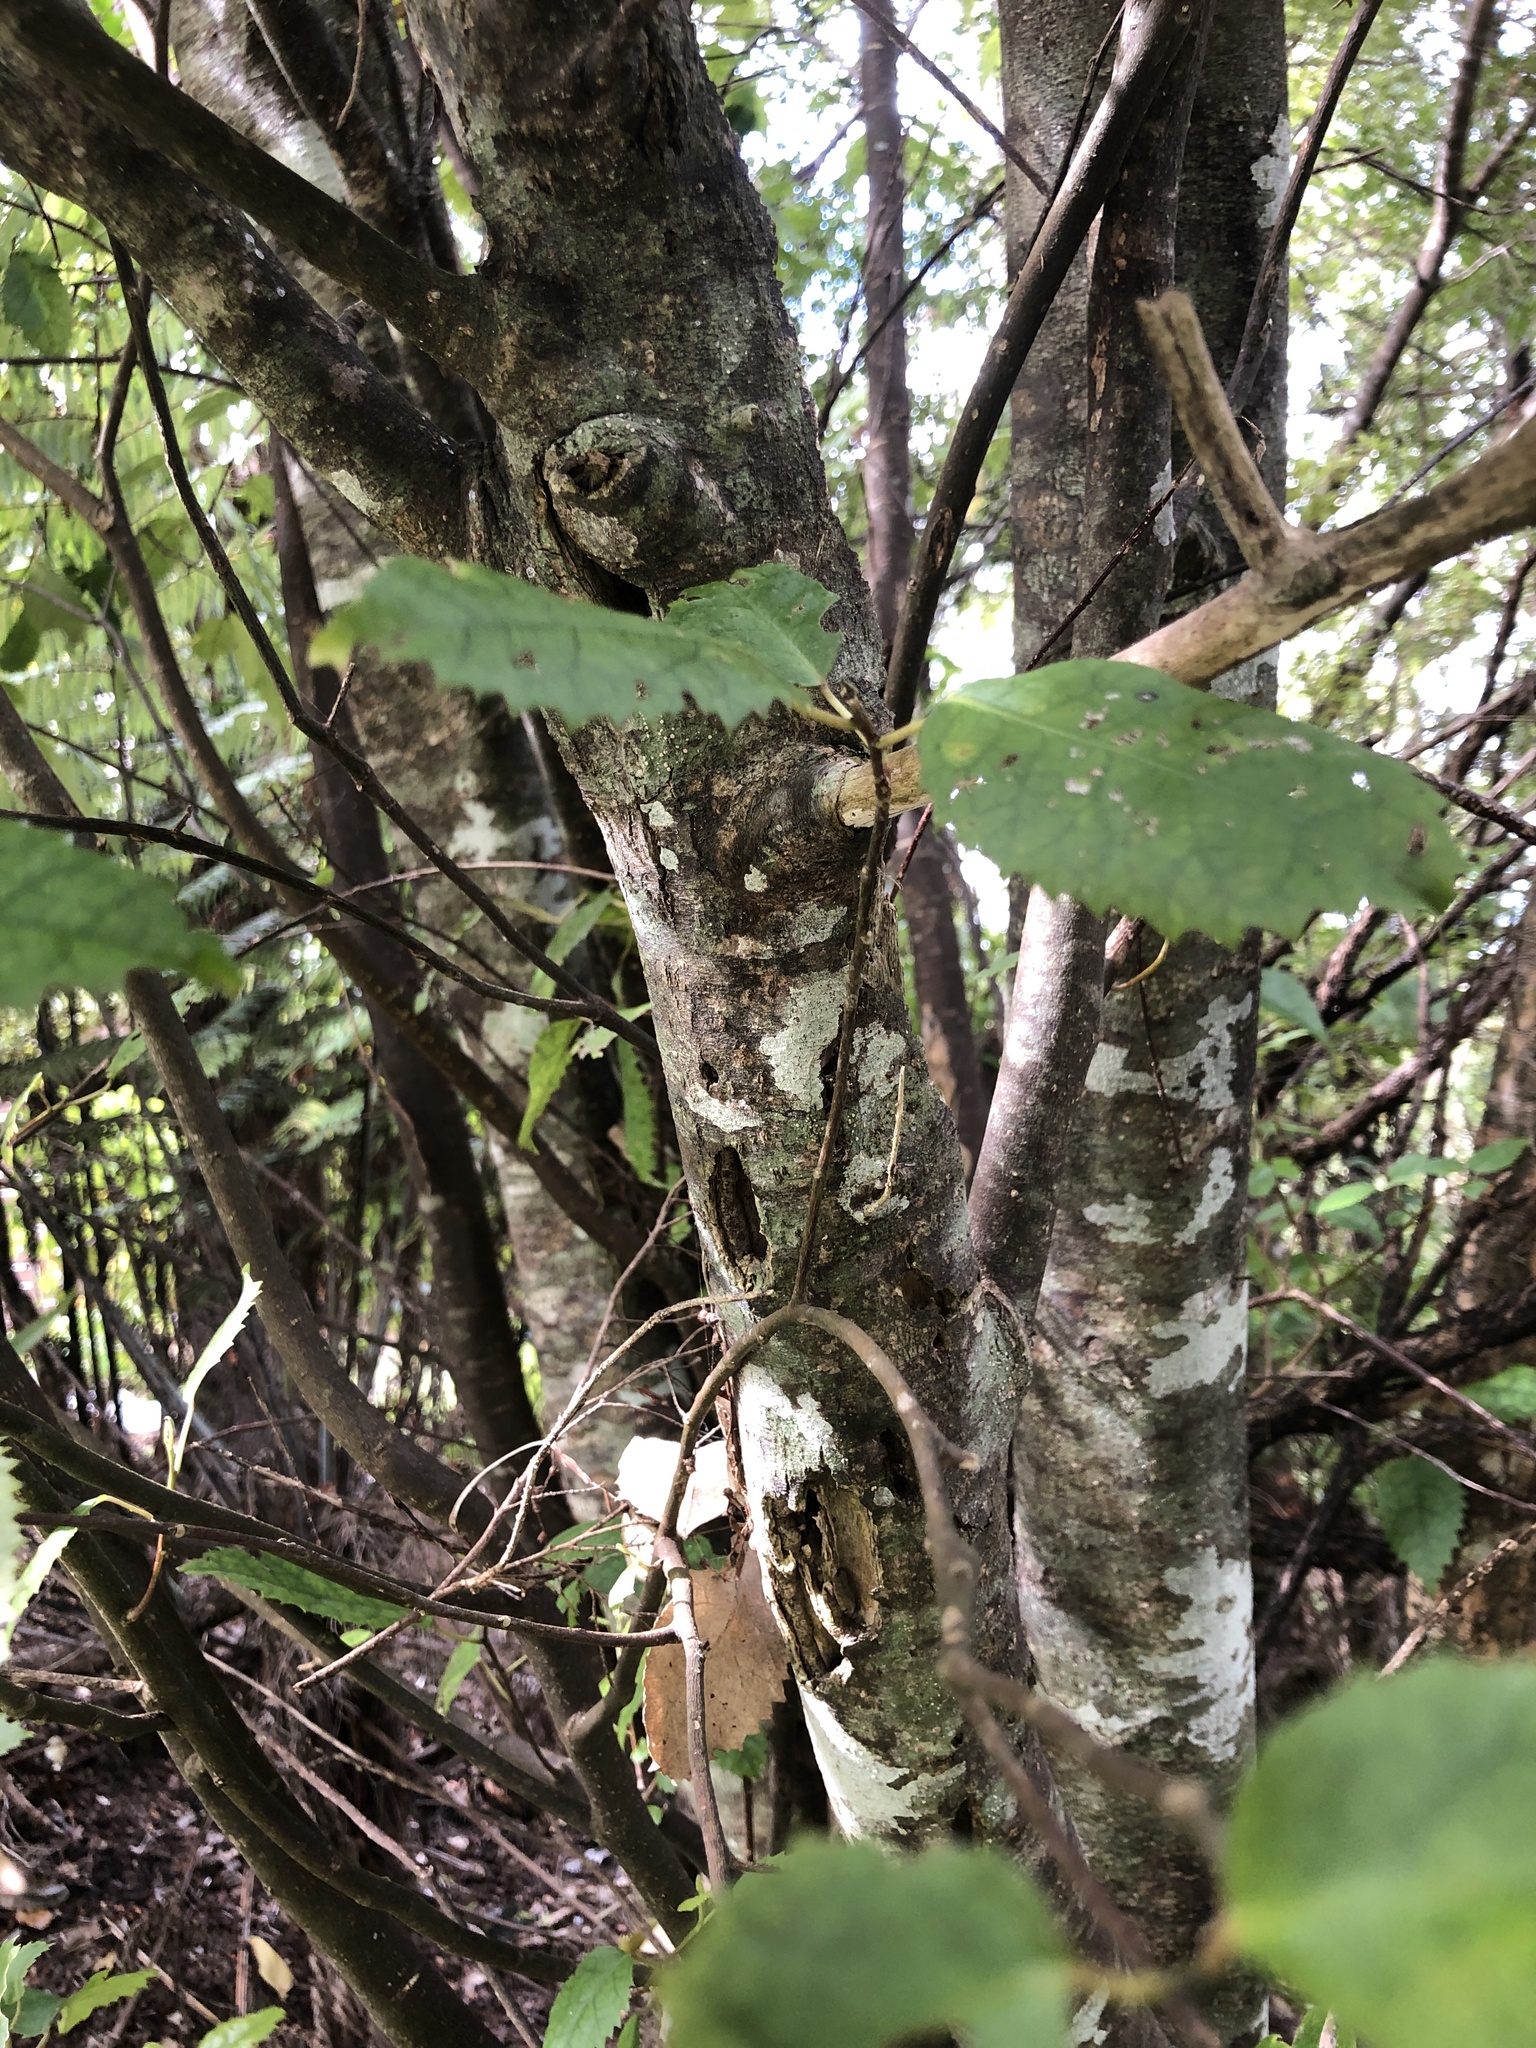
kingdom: Plantae
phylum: Tracheophyta
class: Magnoliopsida
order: Malvales
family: Malvaceae
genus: Hoheria
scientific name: Hoheria populnea
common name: Lacebark
